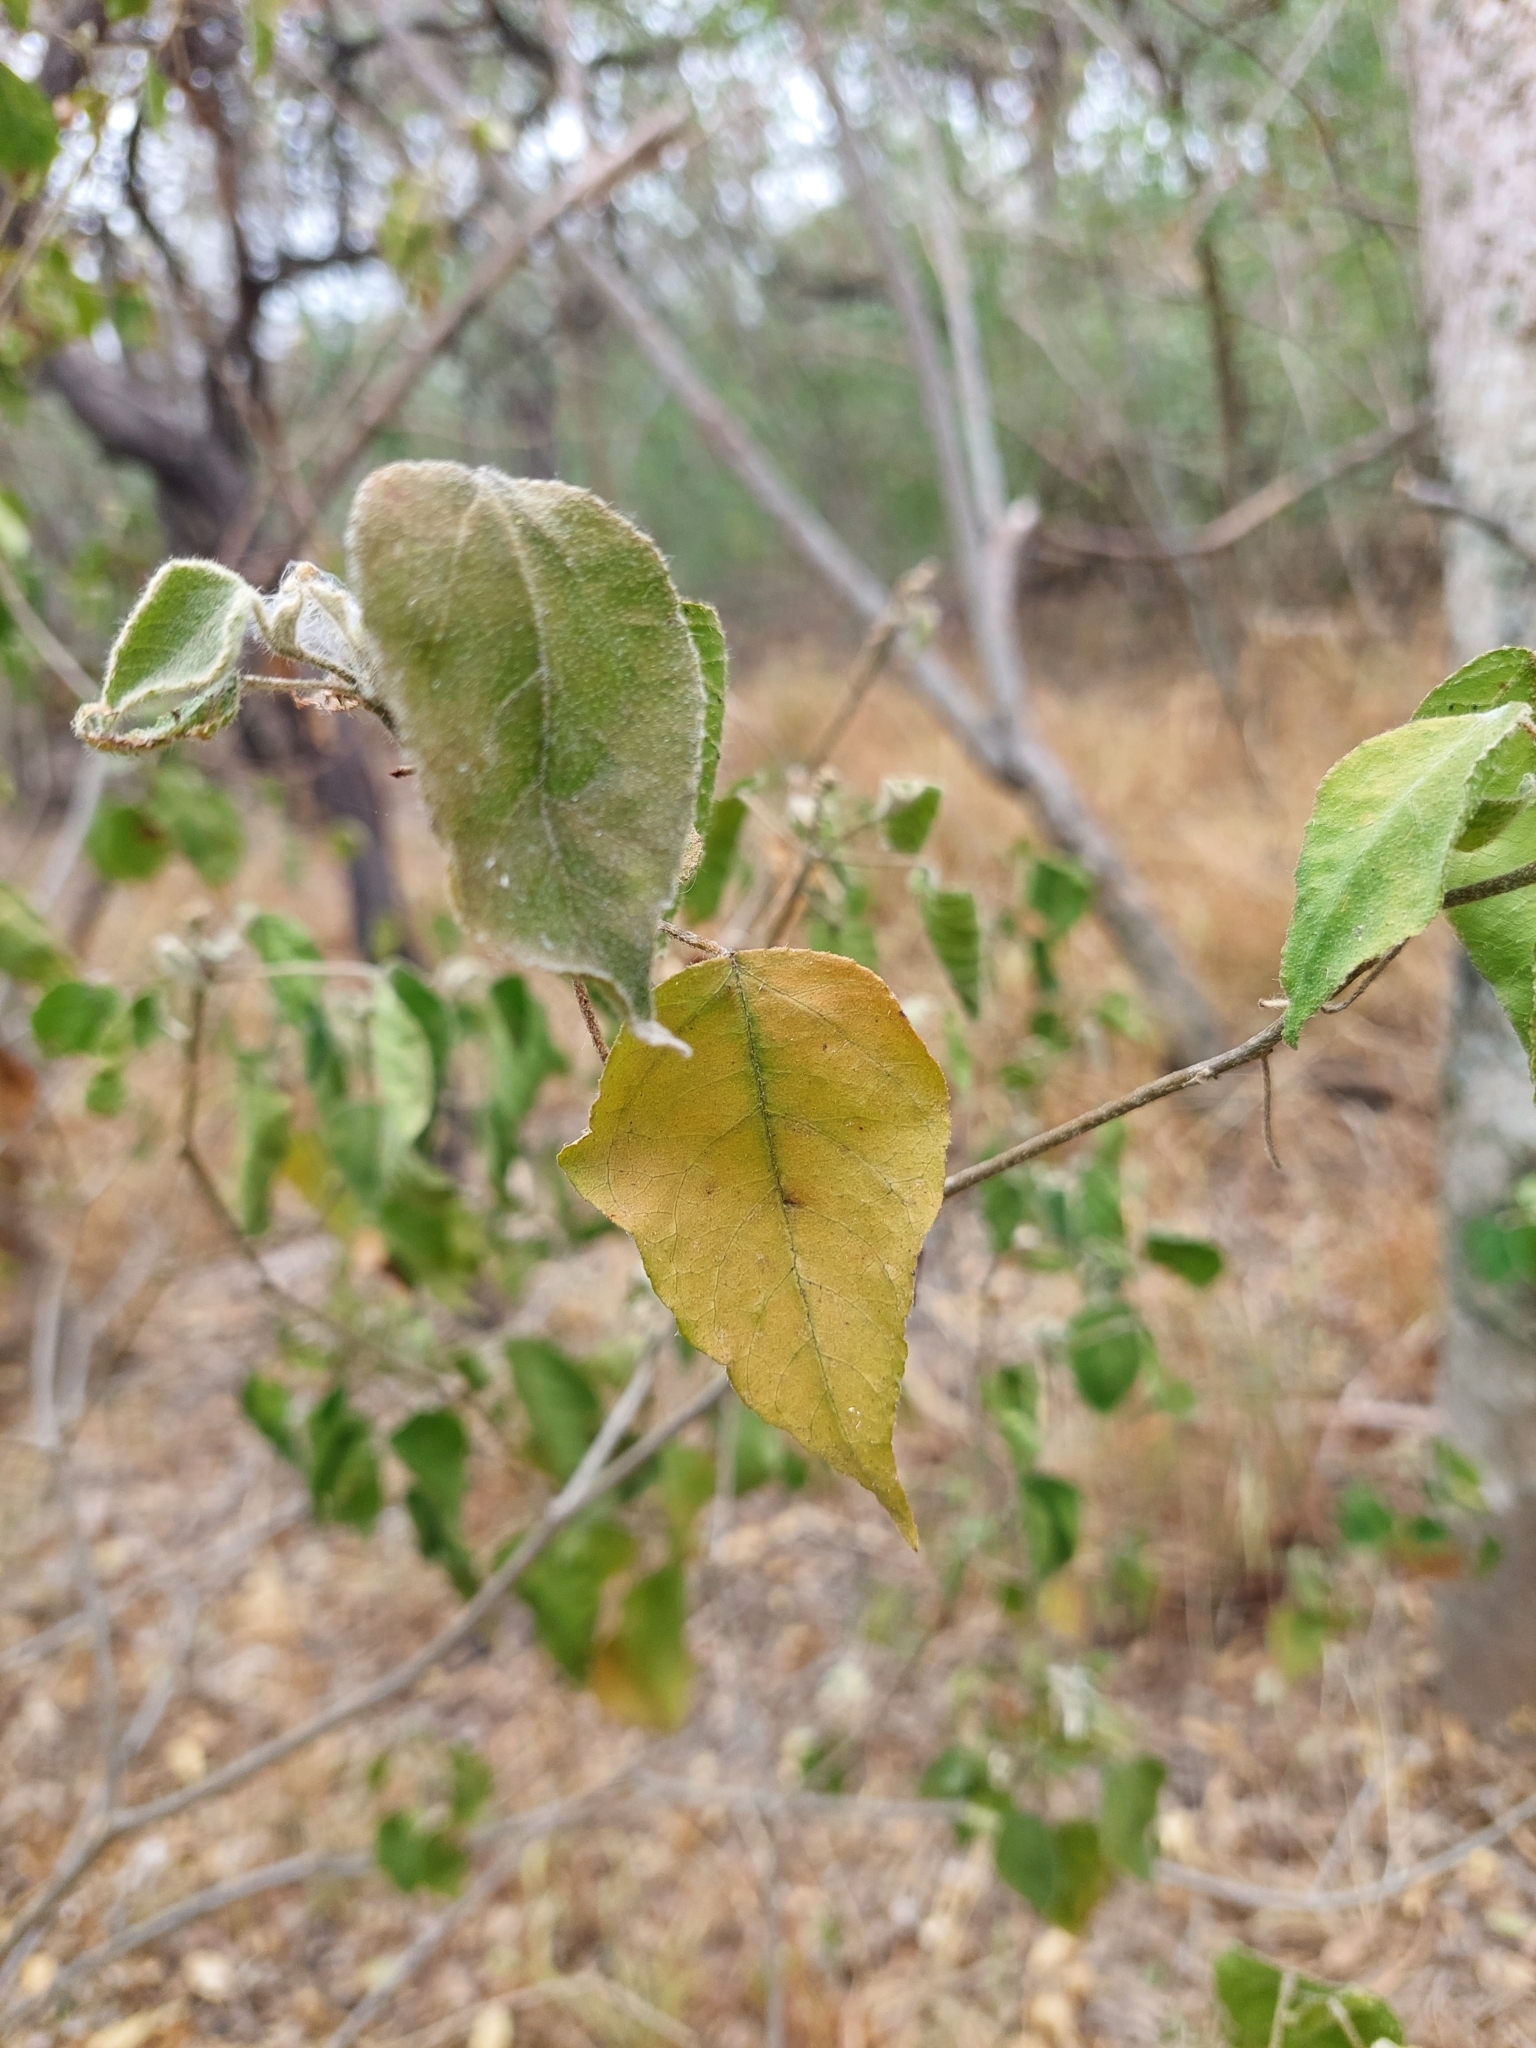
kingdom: Plantae
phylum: Tracheophyta
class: Magnoliopsida
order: Malpighiales
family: Euphorbiaceae
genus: Croton
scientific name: Croton lachnostachyus
